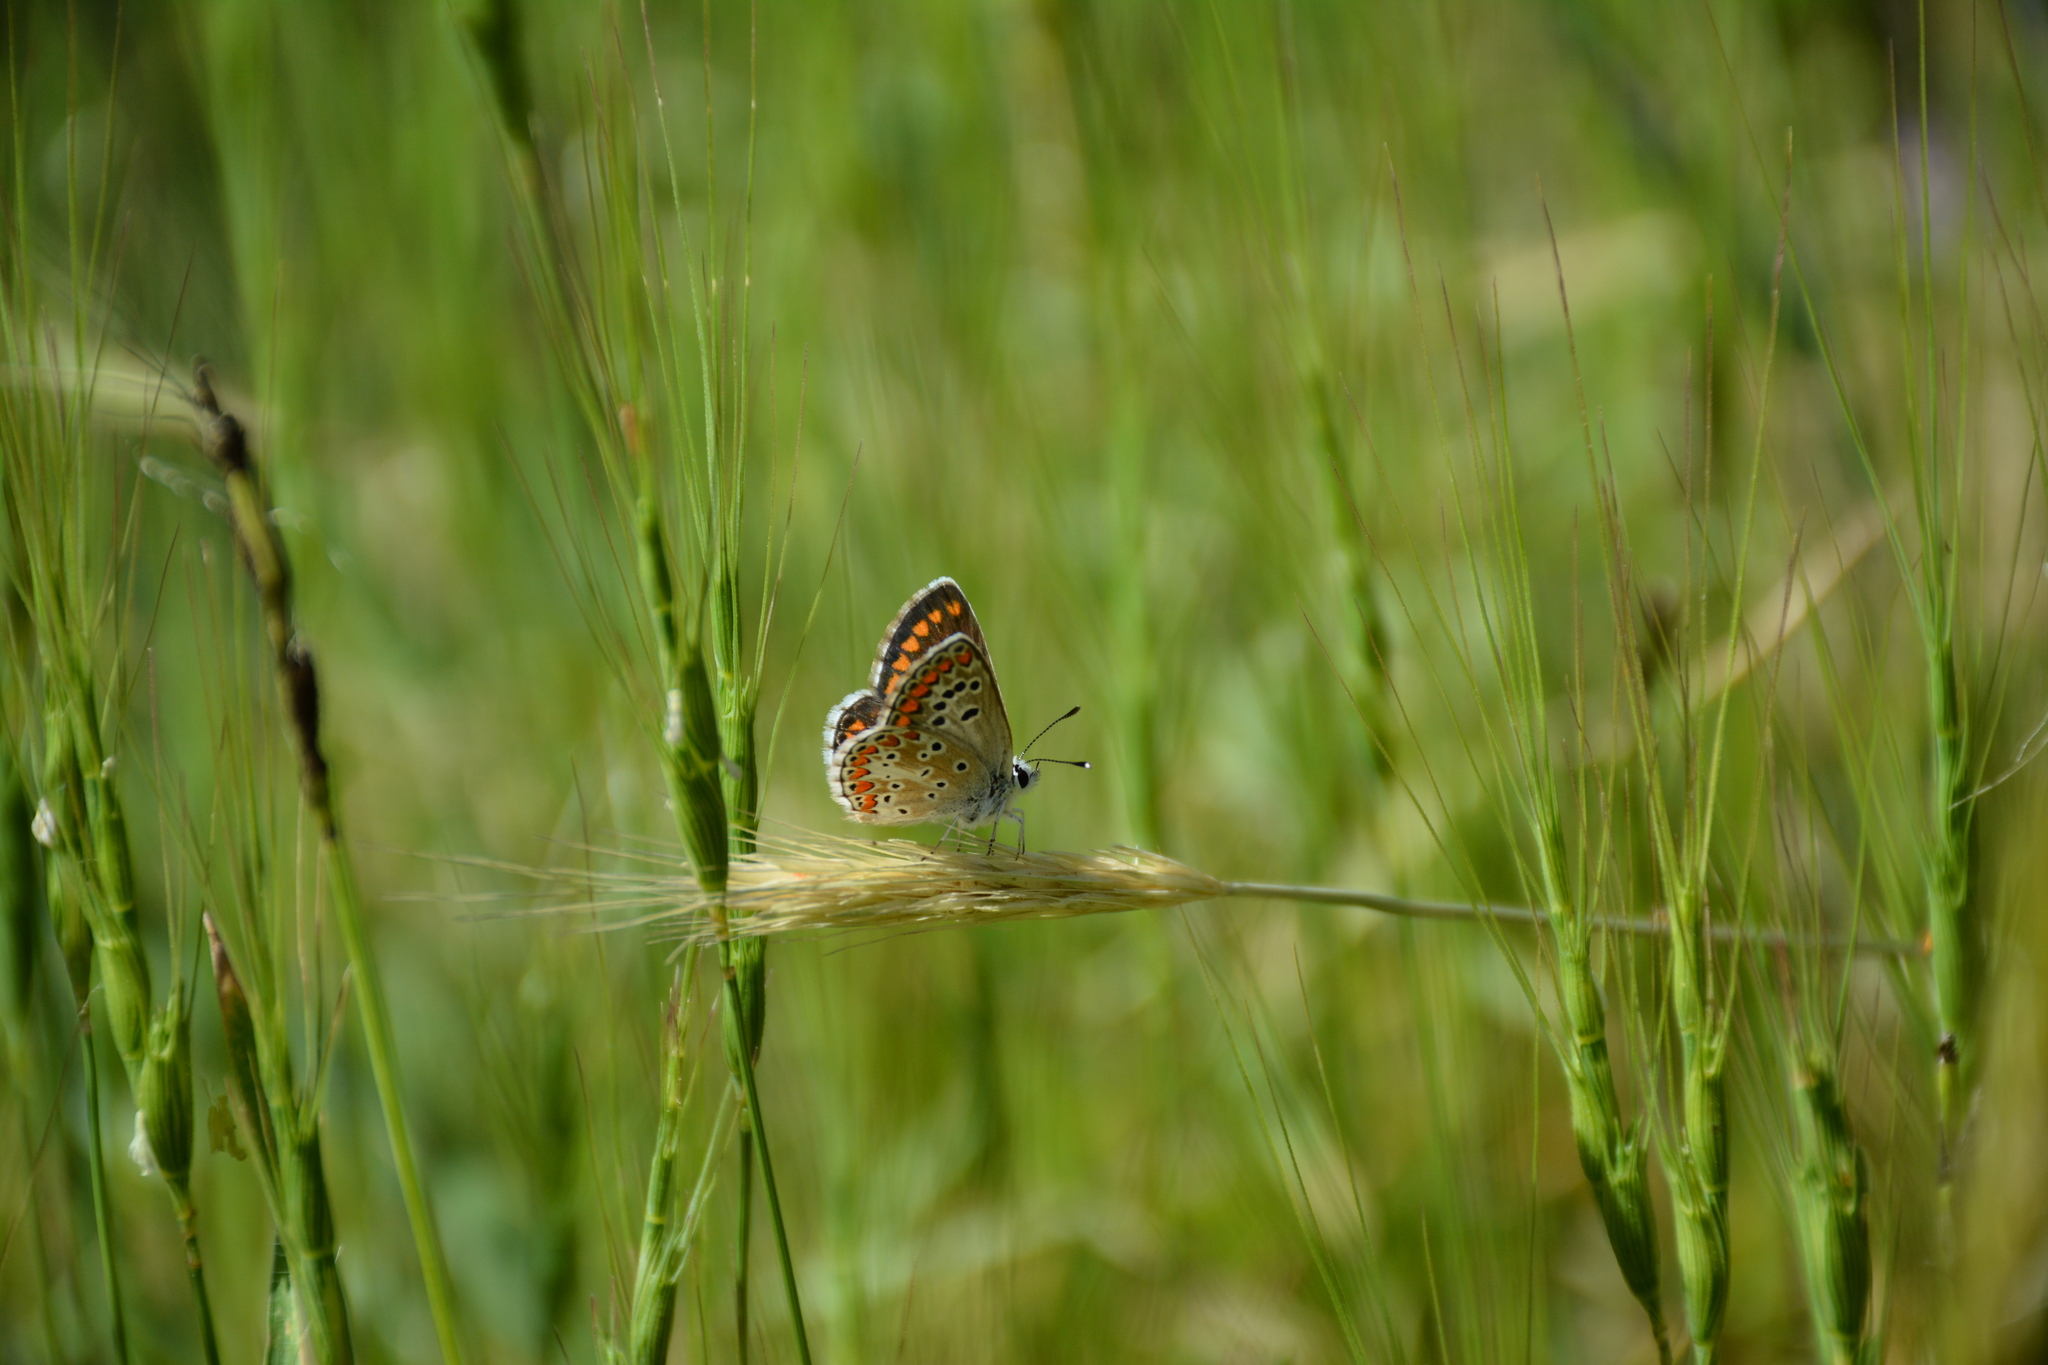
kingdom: Animalia
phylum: Arthropoda
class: Insecta
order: Lepidoptera
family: Lycaenidae
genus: Aricia
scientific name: Aricia agestis
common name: Brown argus
